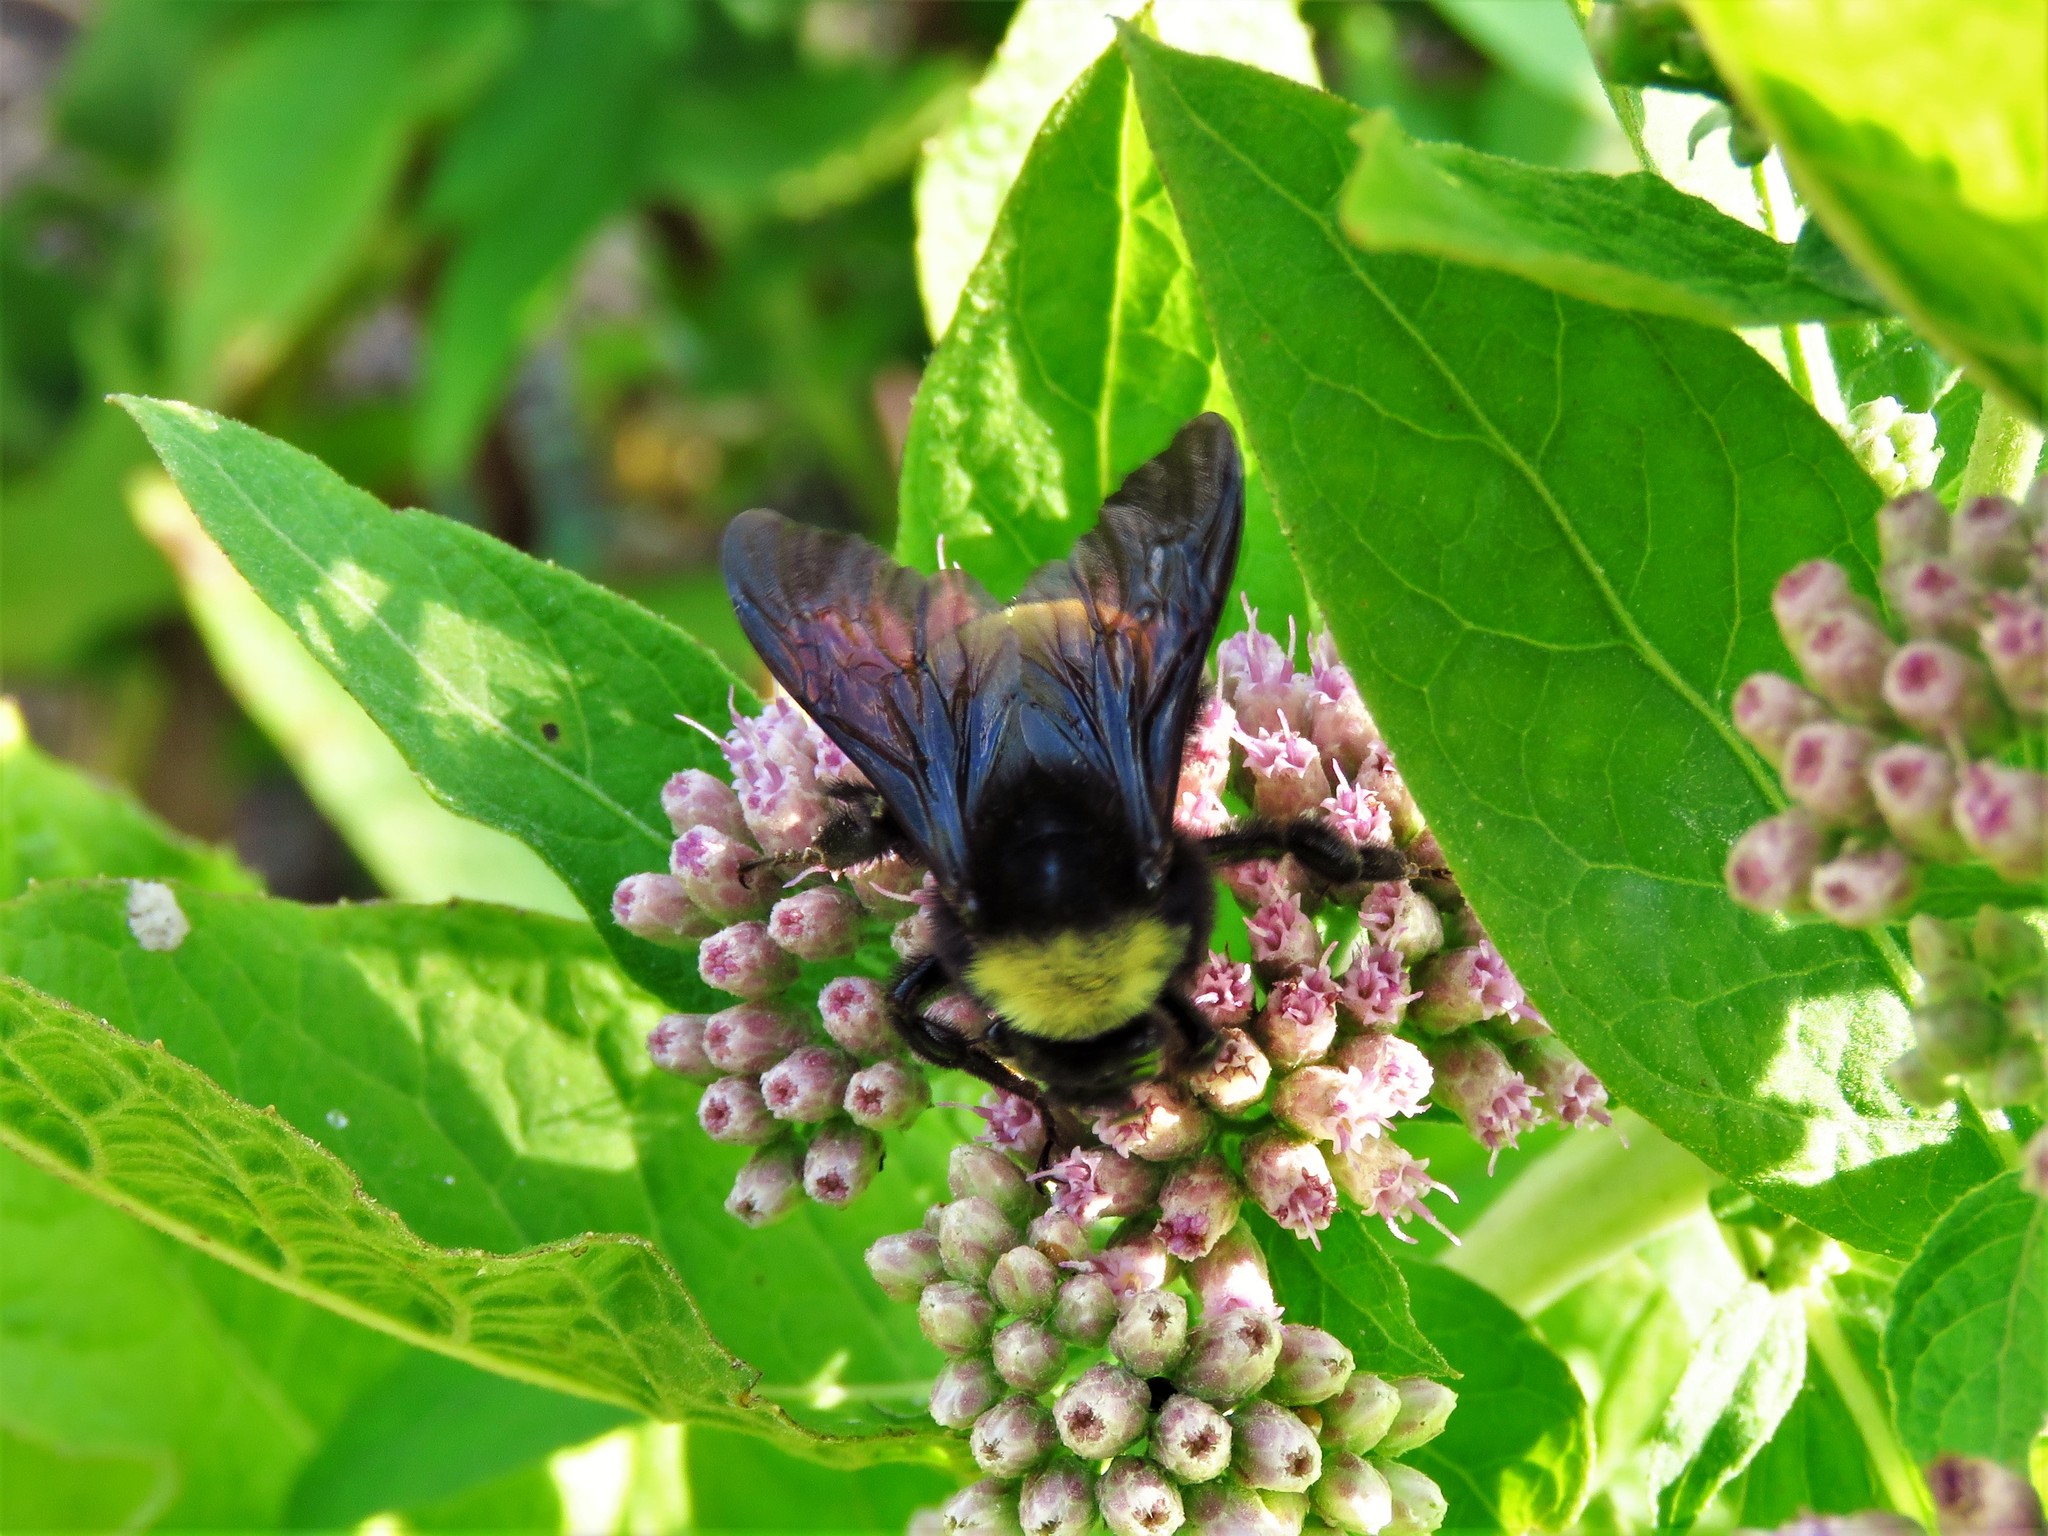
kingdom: Animalia
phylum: Arthropoda
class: Insecta
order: Hymenoptera
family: Apidae
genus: Bombus
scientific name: Bombus pensylvanicus
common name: Bumble bee
